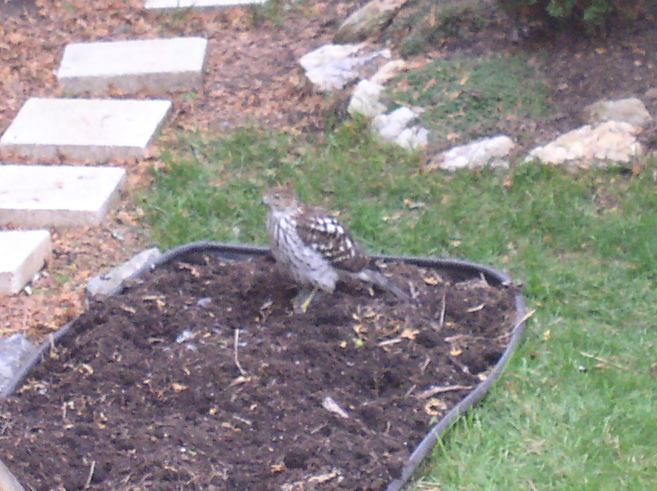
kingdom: Animalia
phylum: Chordata
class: Aves
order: Accipitriformes
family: Accipitridae
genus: Accipiter
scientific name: Accipiter cooperii
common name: Cooper's hawk
